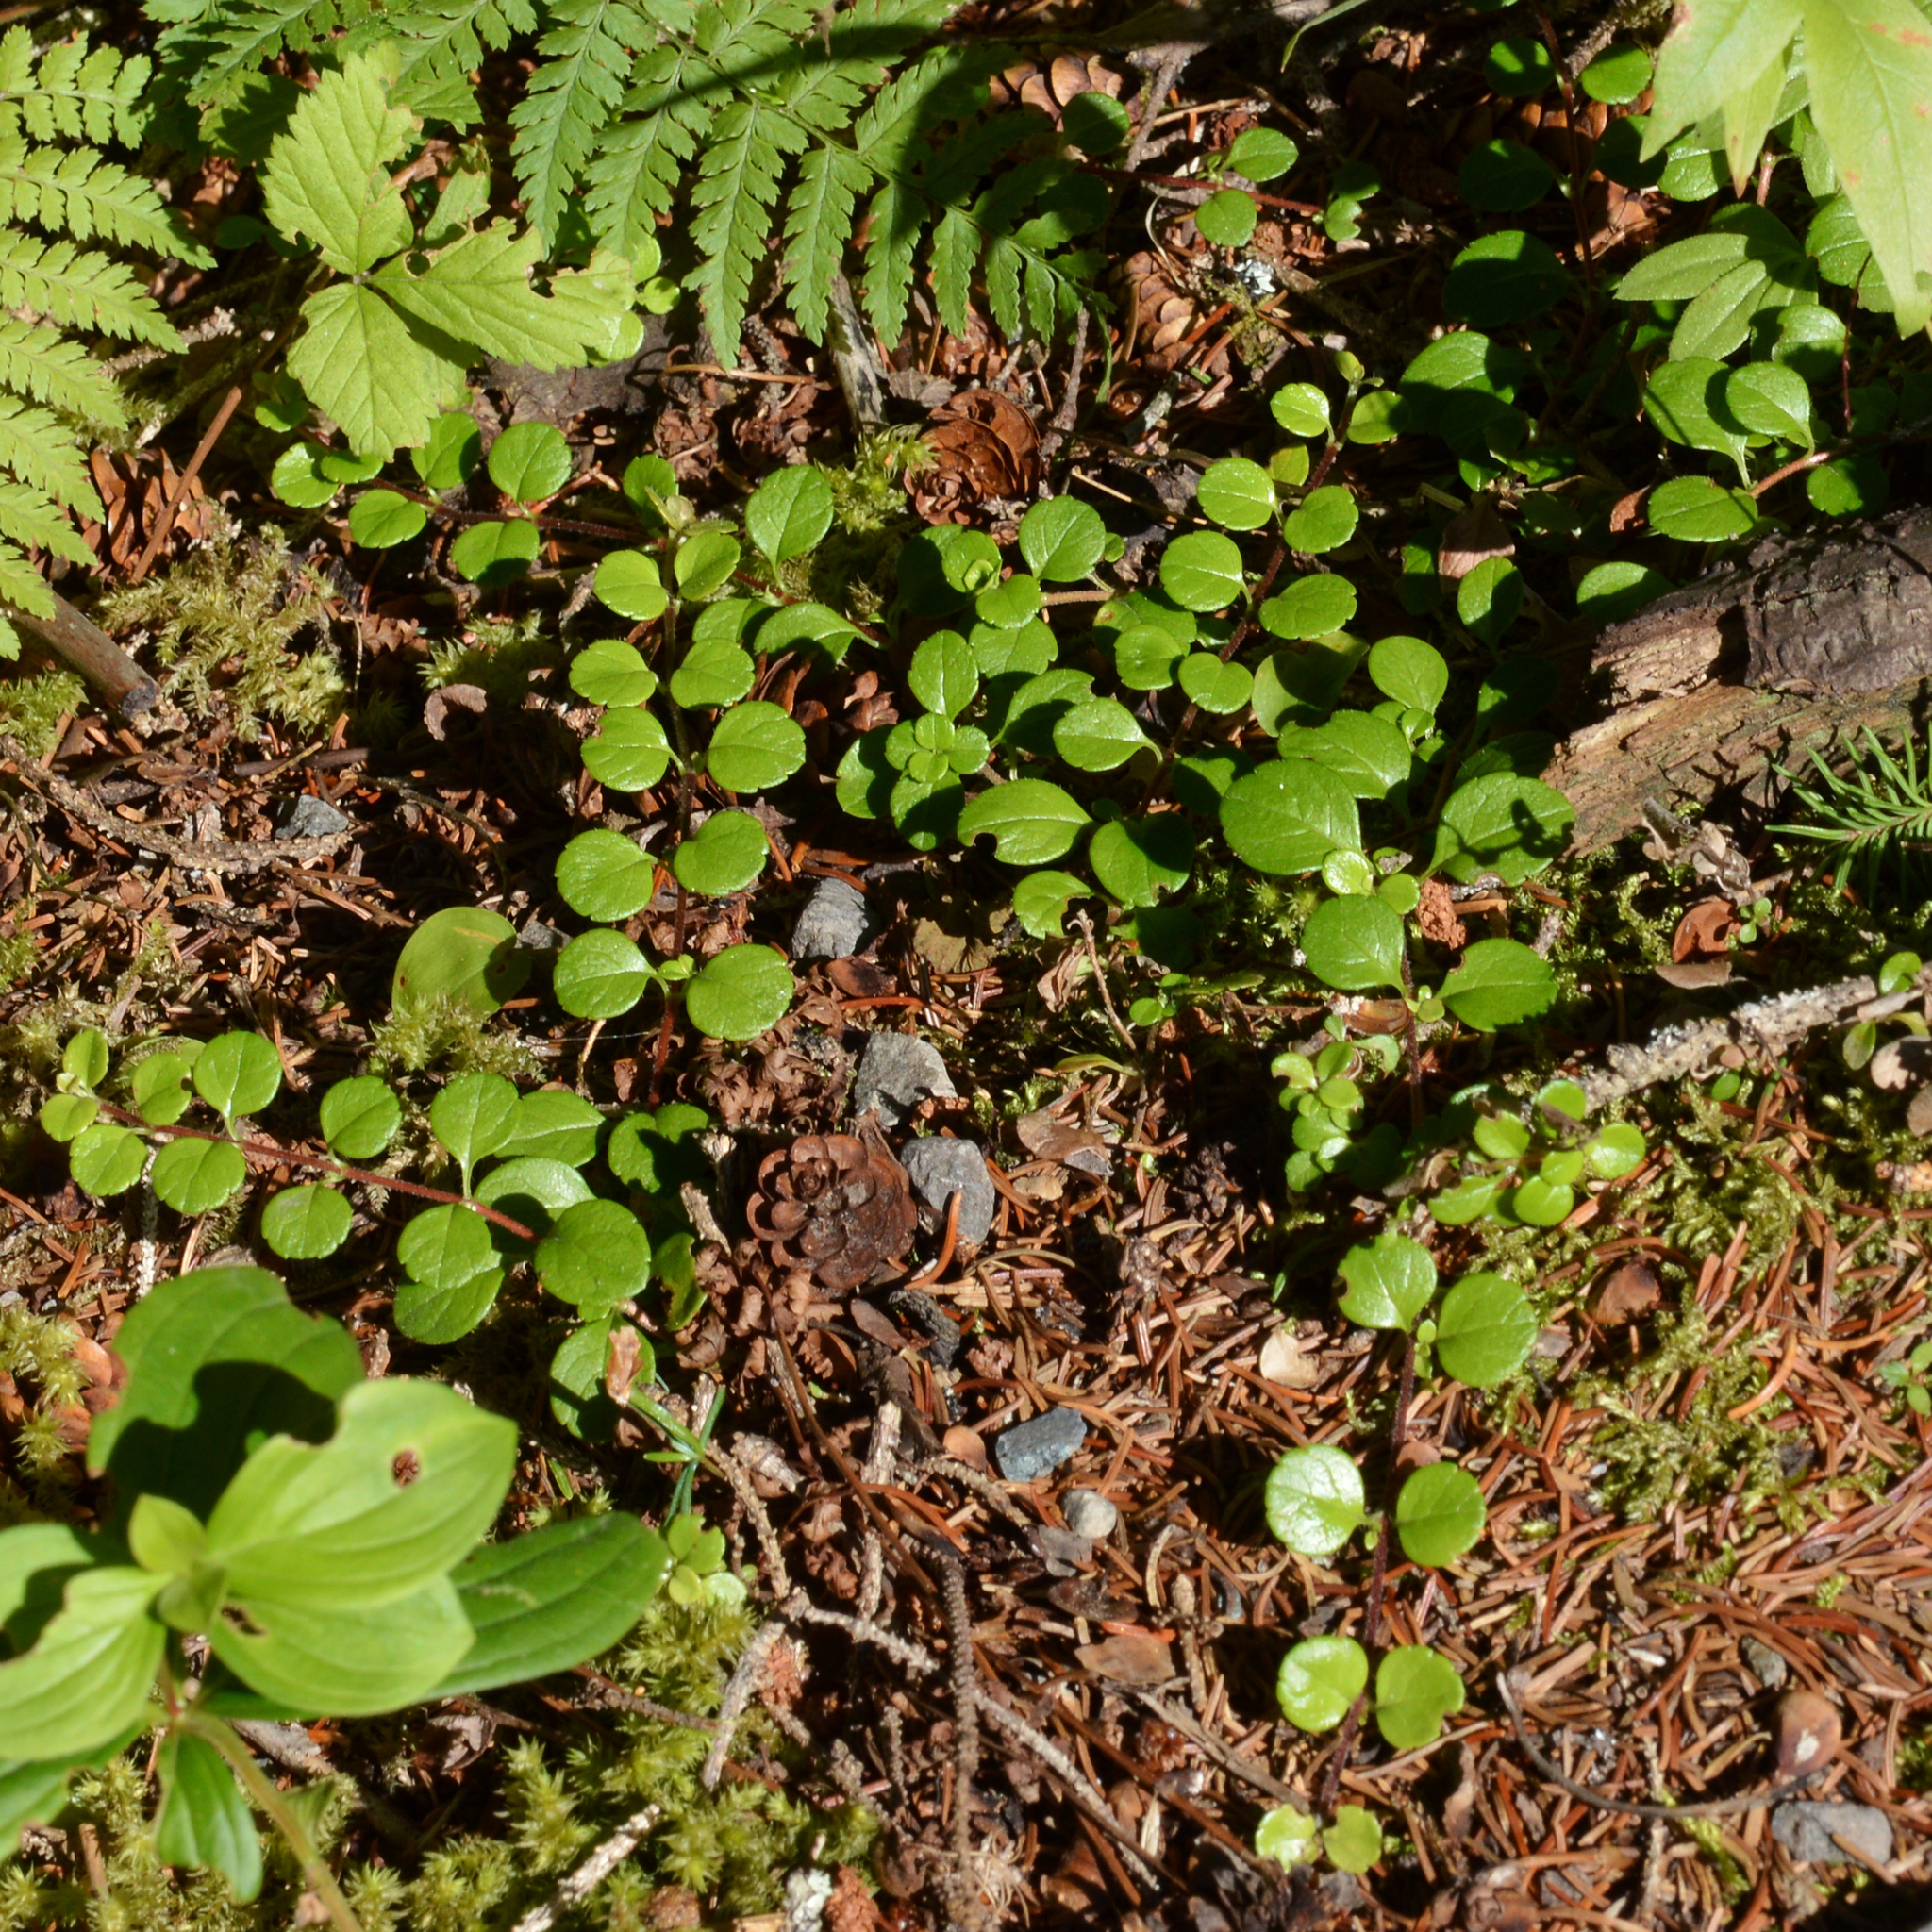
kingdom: Plantae
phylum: Tracheophyta
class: Magnoliopsida
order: Dipsacales
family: Caprifoliaceae
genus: Linnaea
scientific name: Linnaea borealis
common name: Twinflower
